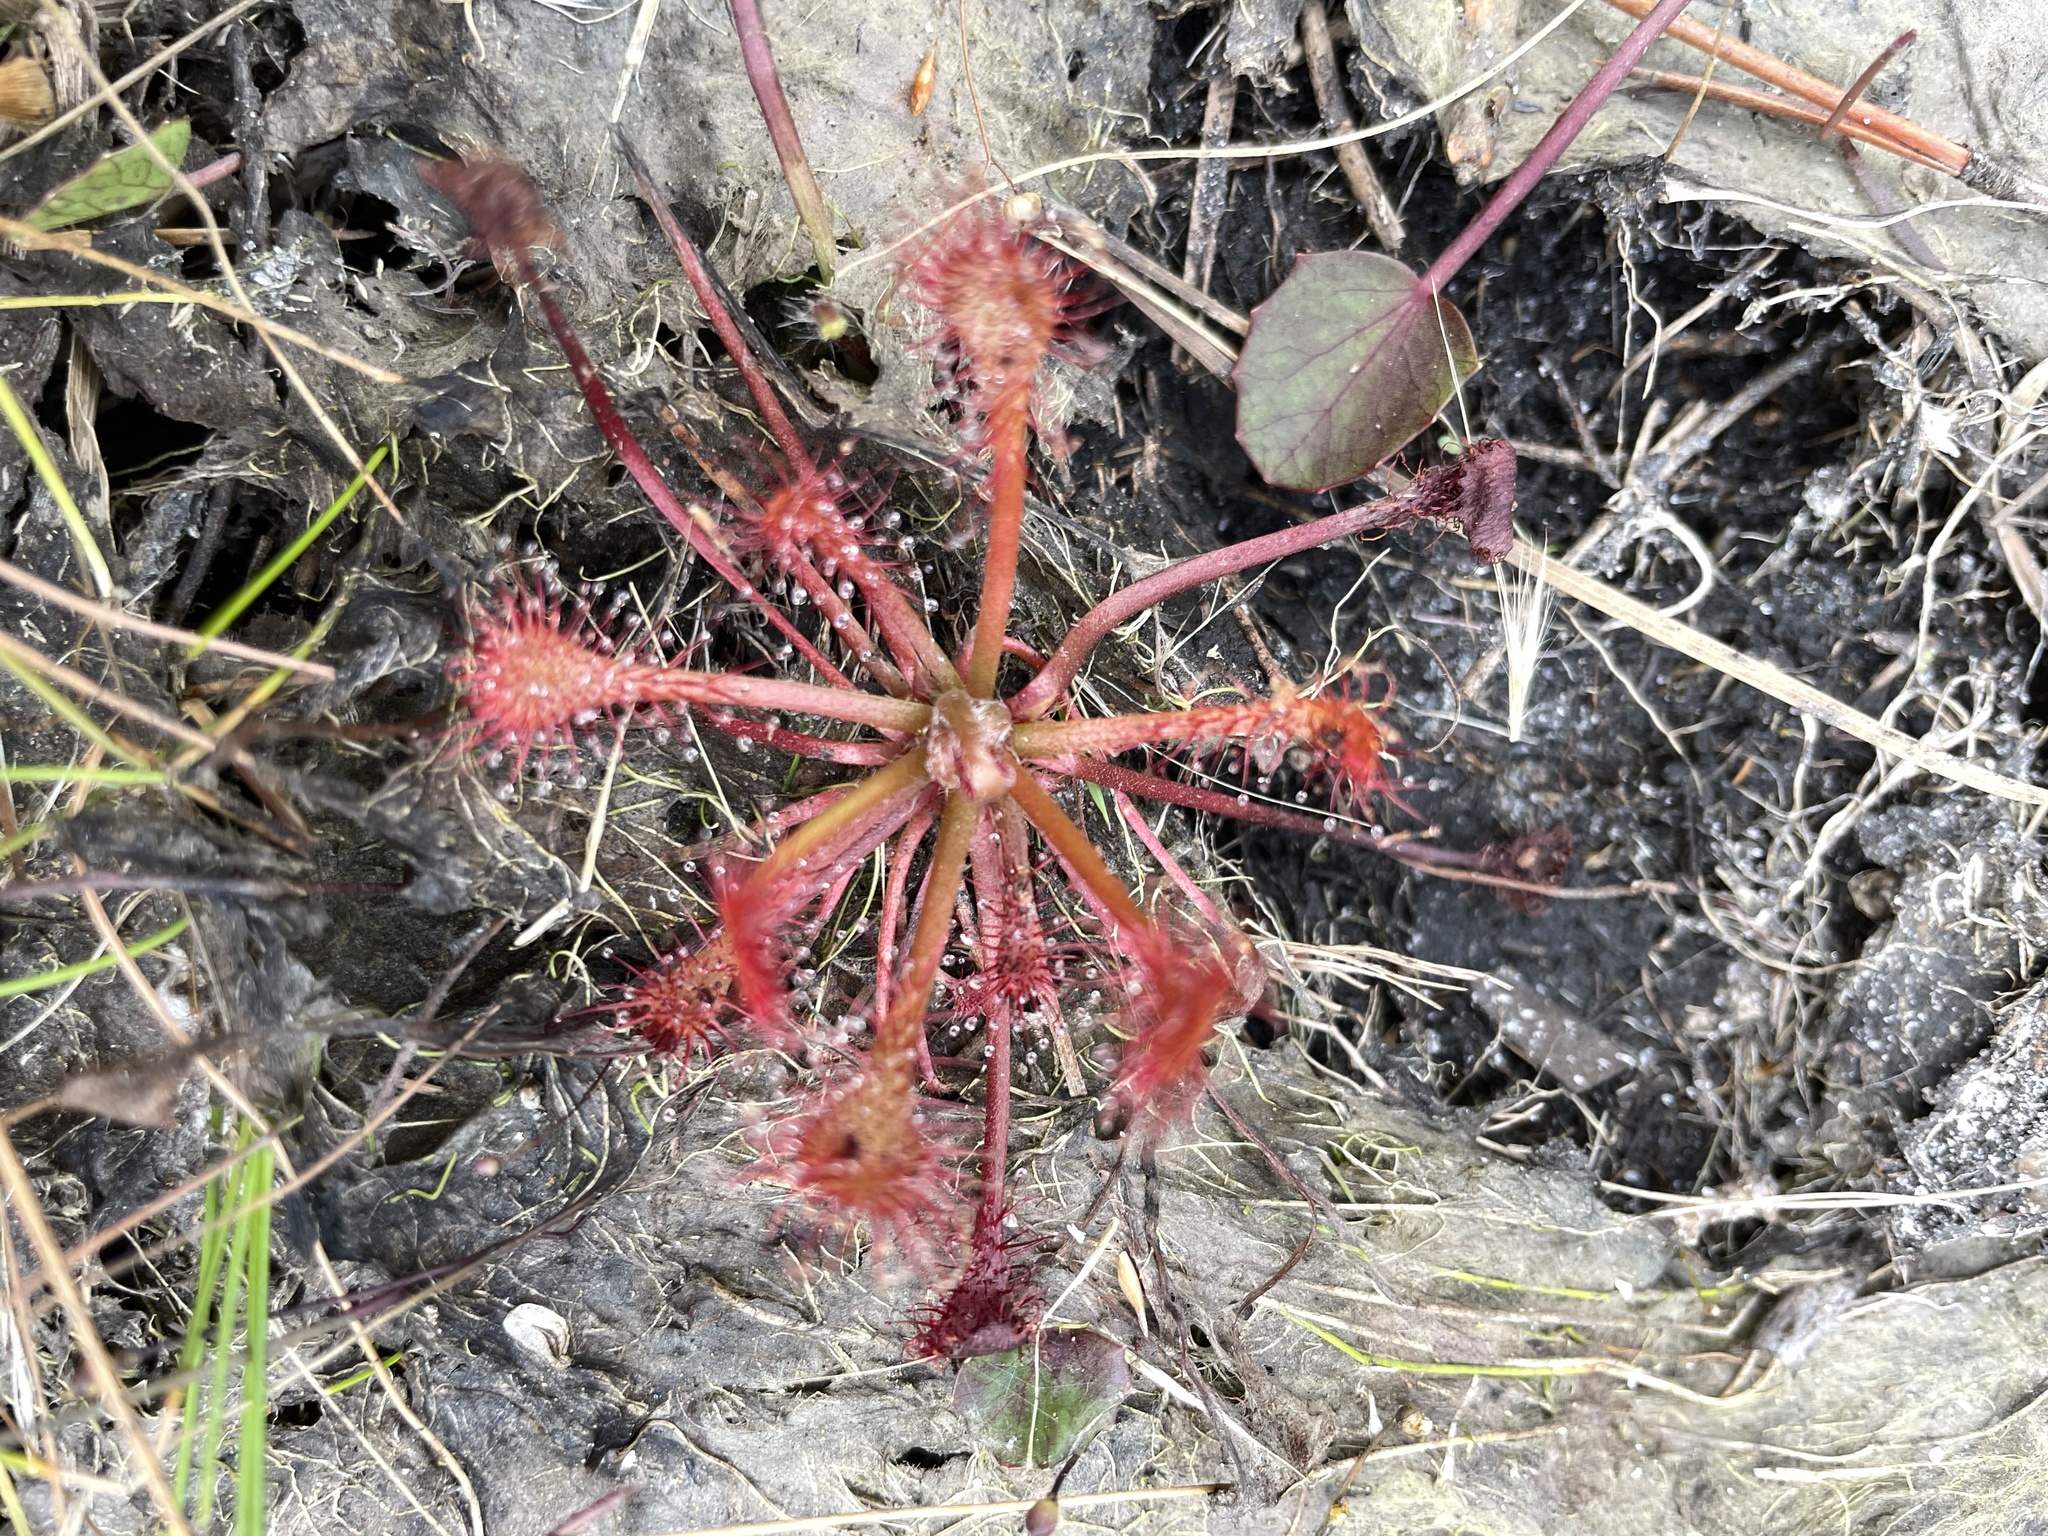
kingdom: Plantae
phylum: Tracheophyta
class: Magnoliopsida
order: Caryophyllales
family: Droseraceae
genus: Drosera
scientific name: Drosera capillaris
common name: Pink sundew
